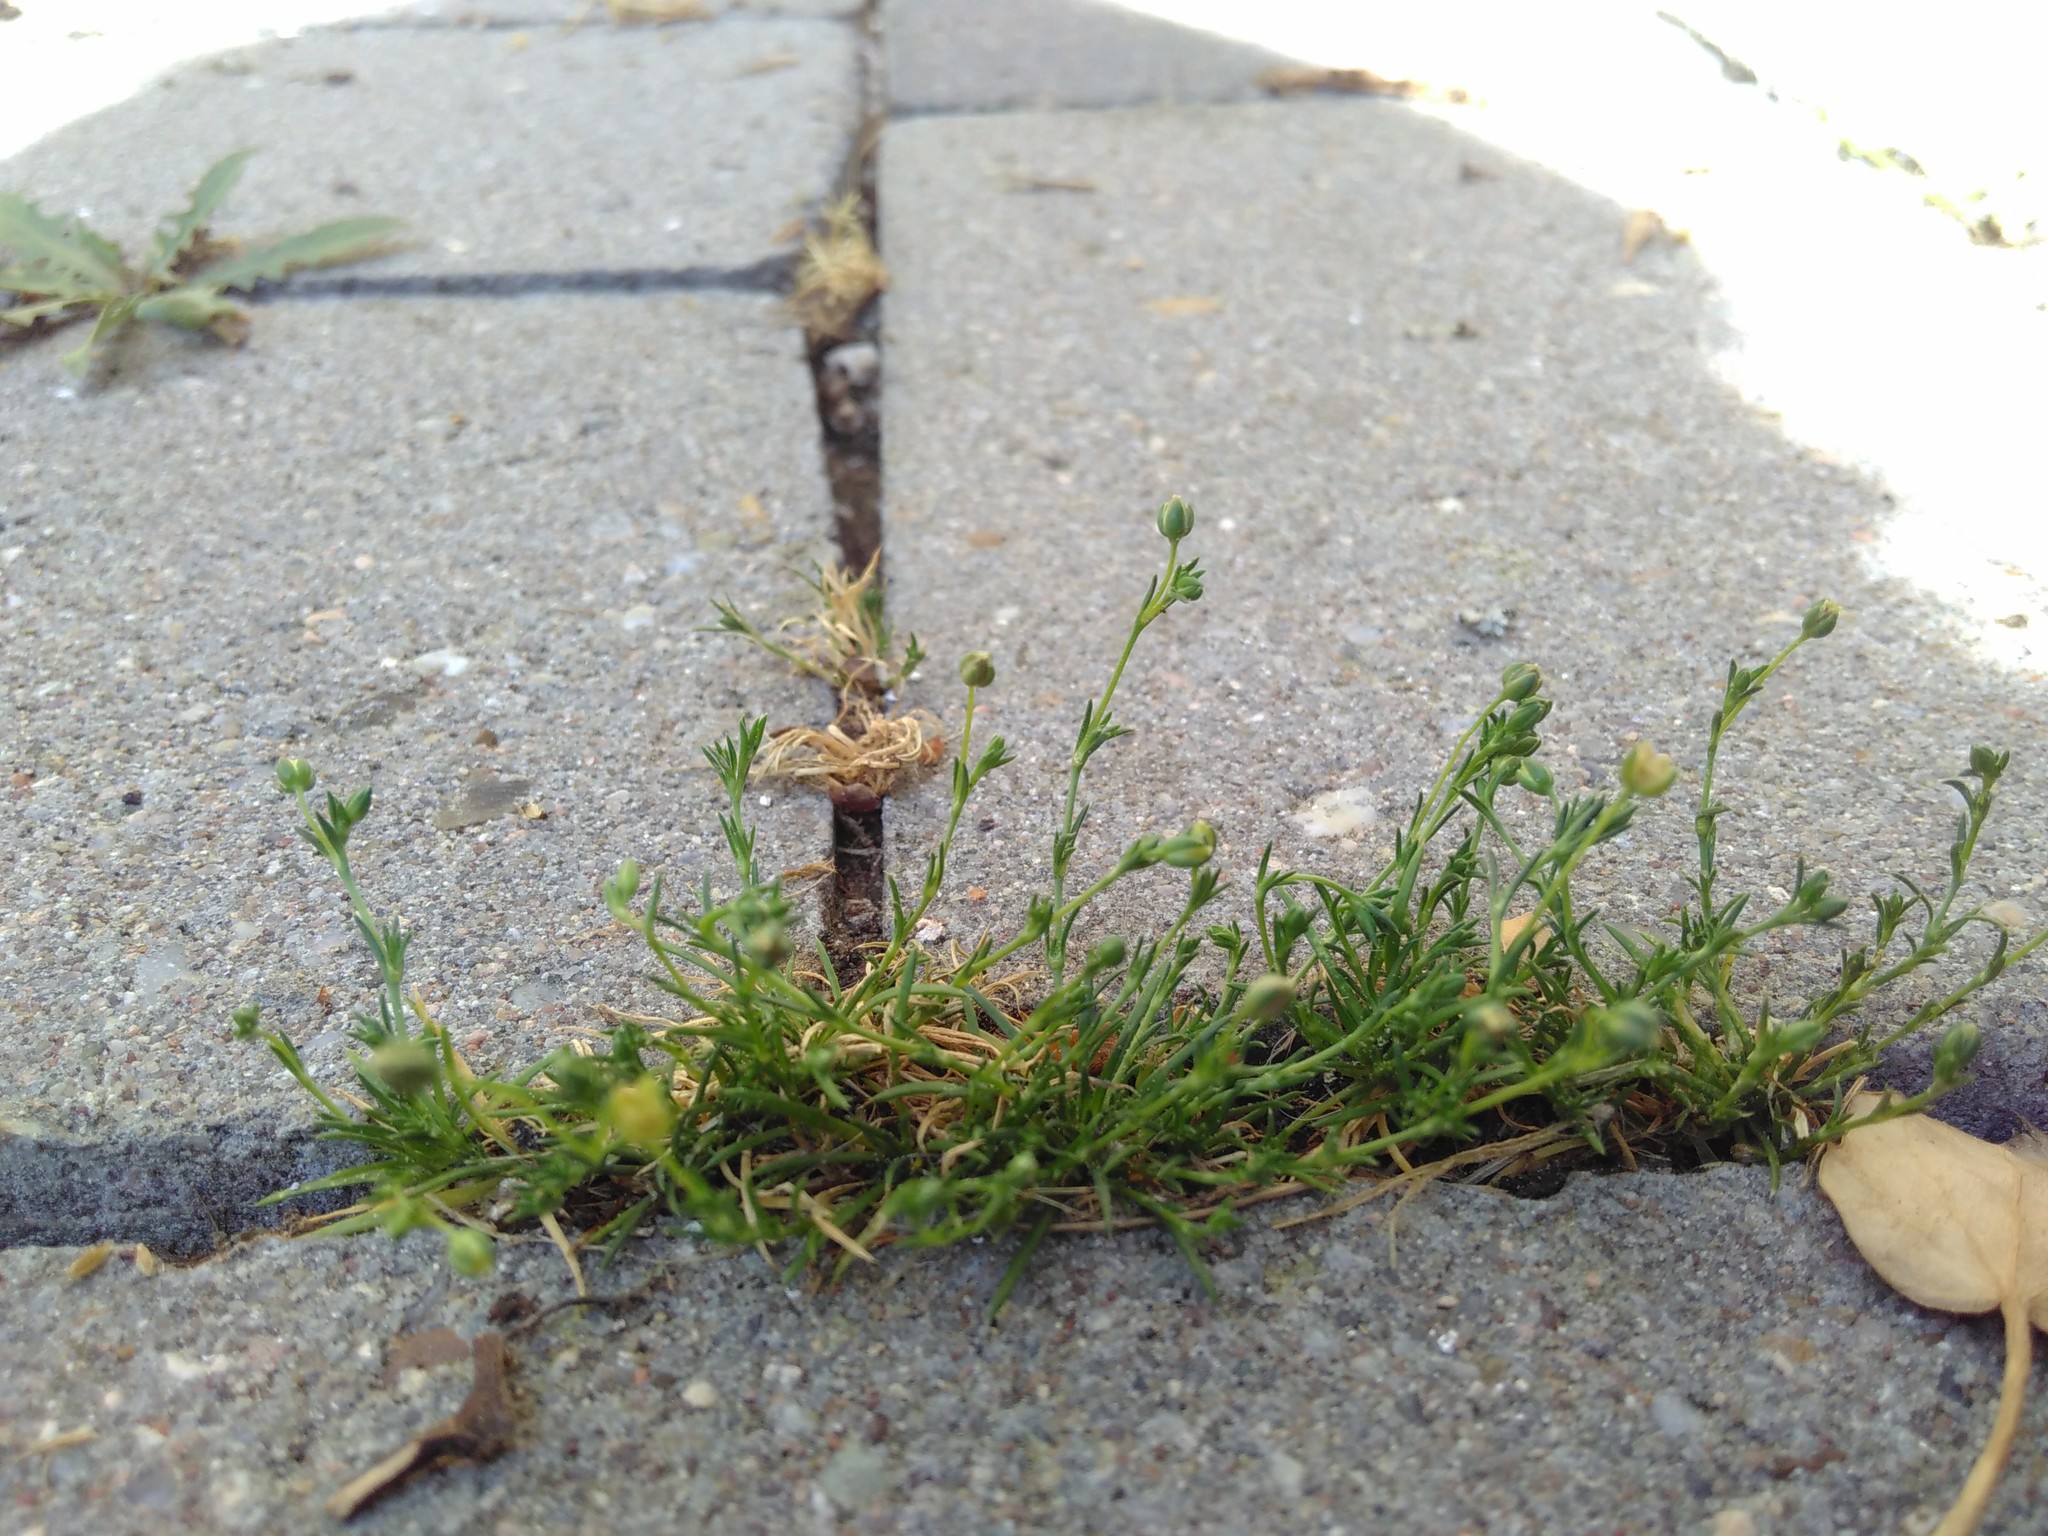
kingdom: Plantae
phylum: Tracheophyta
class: Magnoliopsida
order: Caryophyllales
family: Caryophyllaceae
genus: Sagina
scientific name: Sagina procumbens
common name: Procumbent pearlwort
